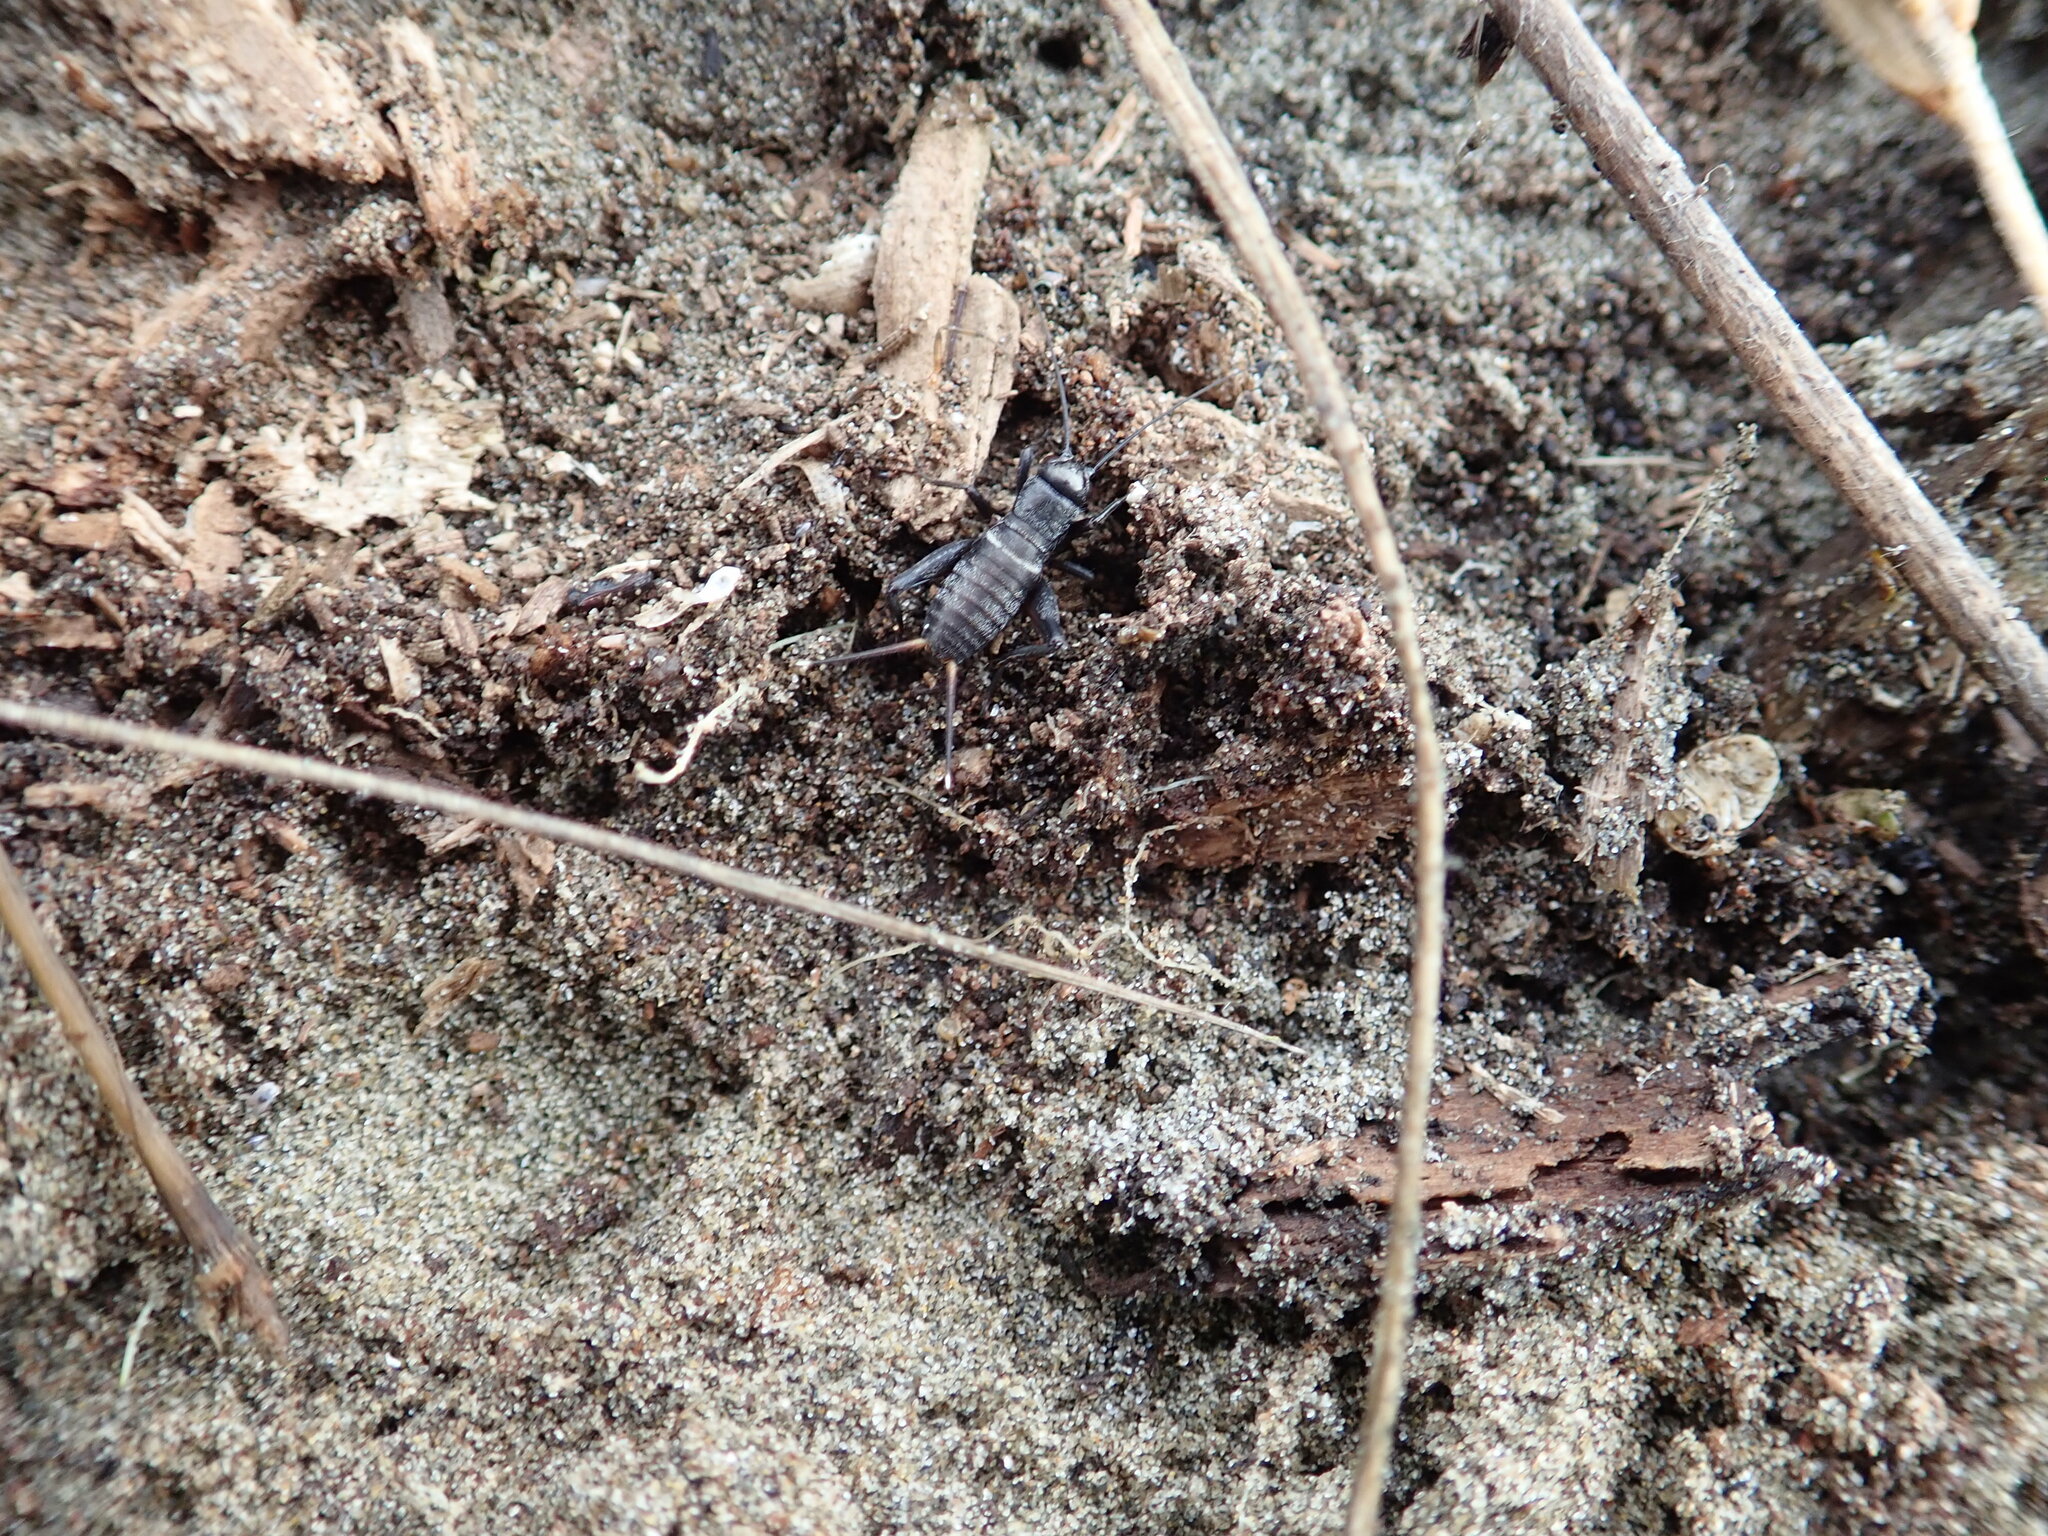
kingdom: Animalia
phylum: Arthropoda
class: Insecta
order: Orthoptera
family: Gryllidae
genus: Teleogryllus
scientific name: Teleogryllus commodus
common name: Black field cricket
